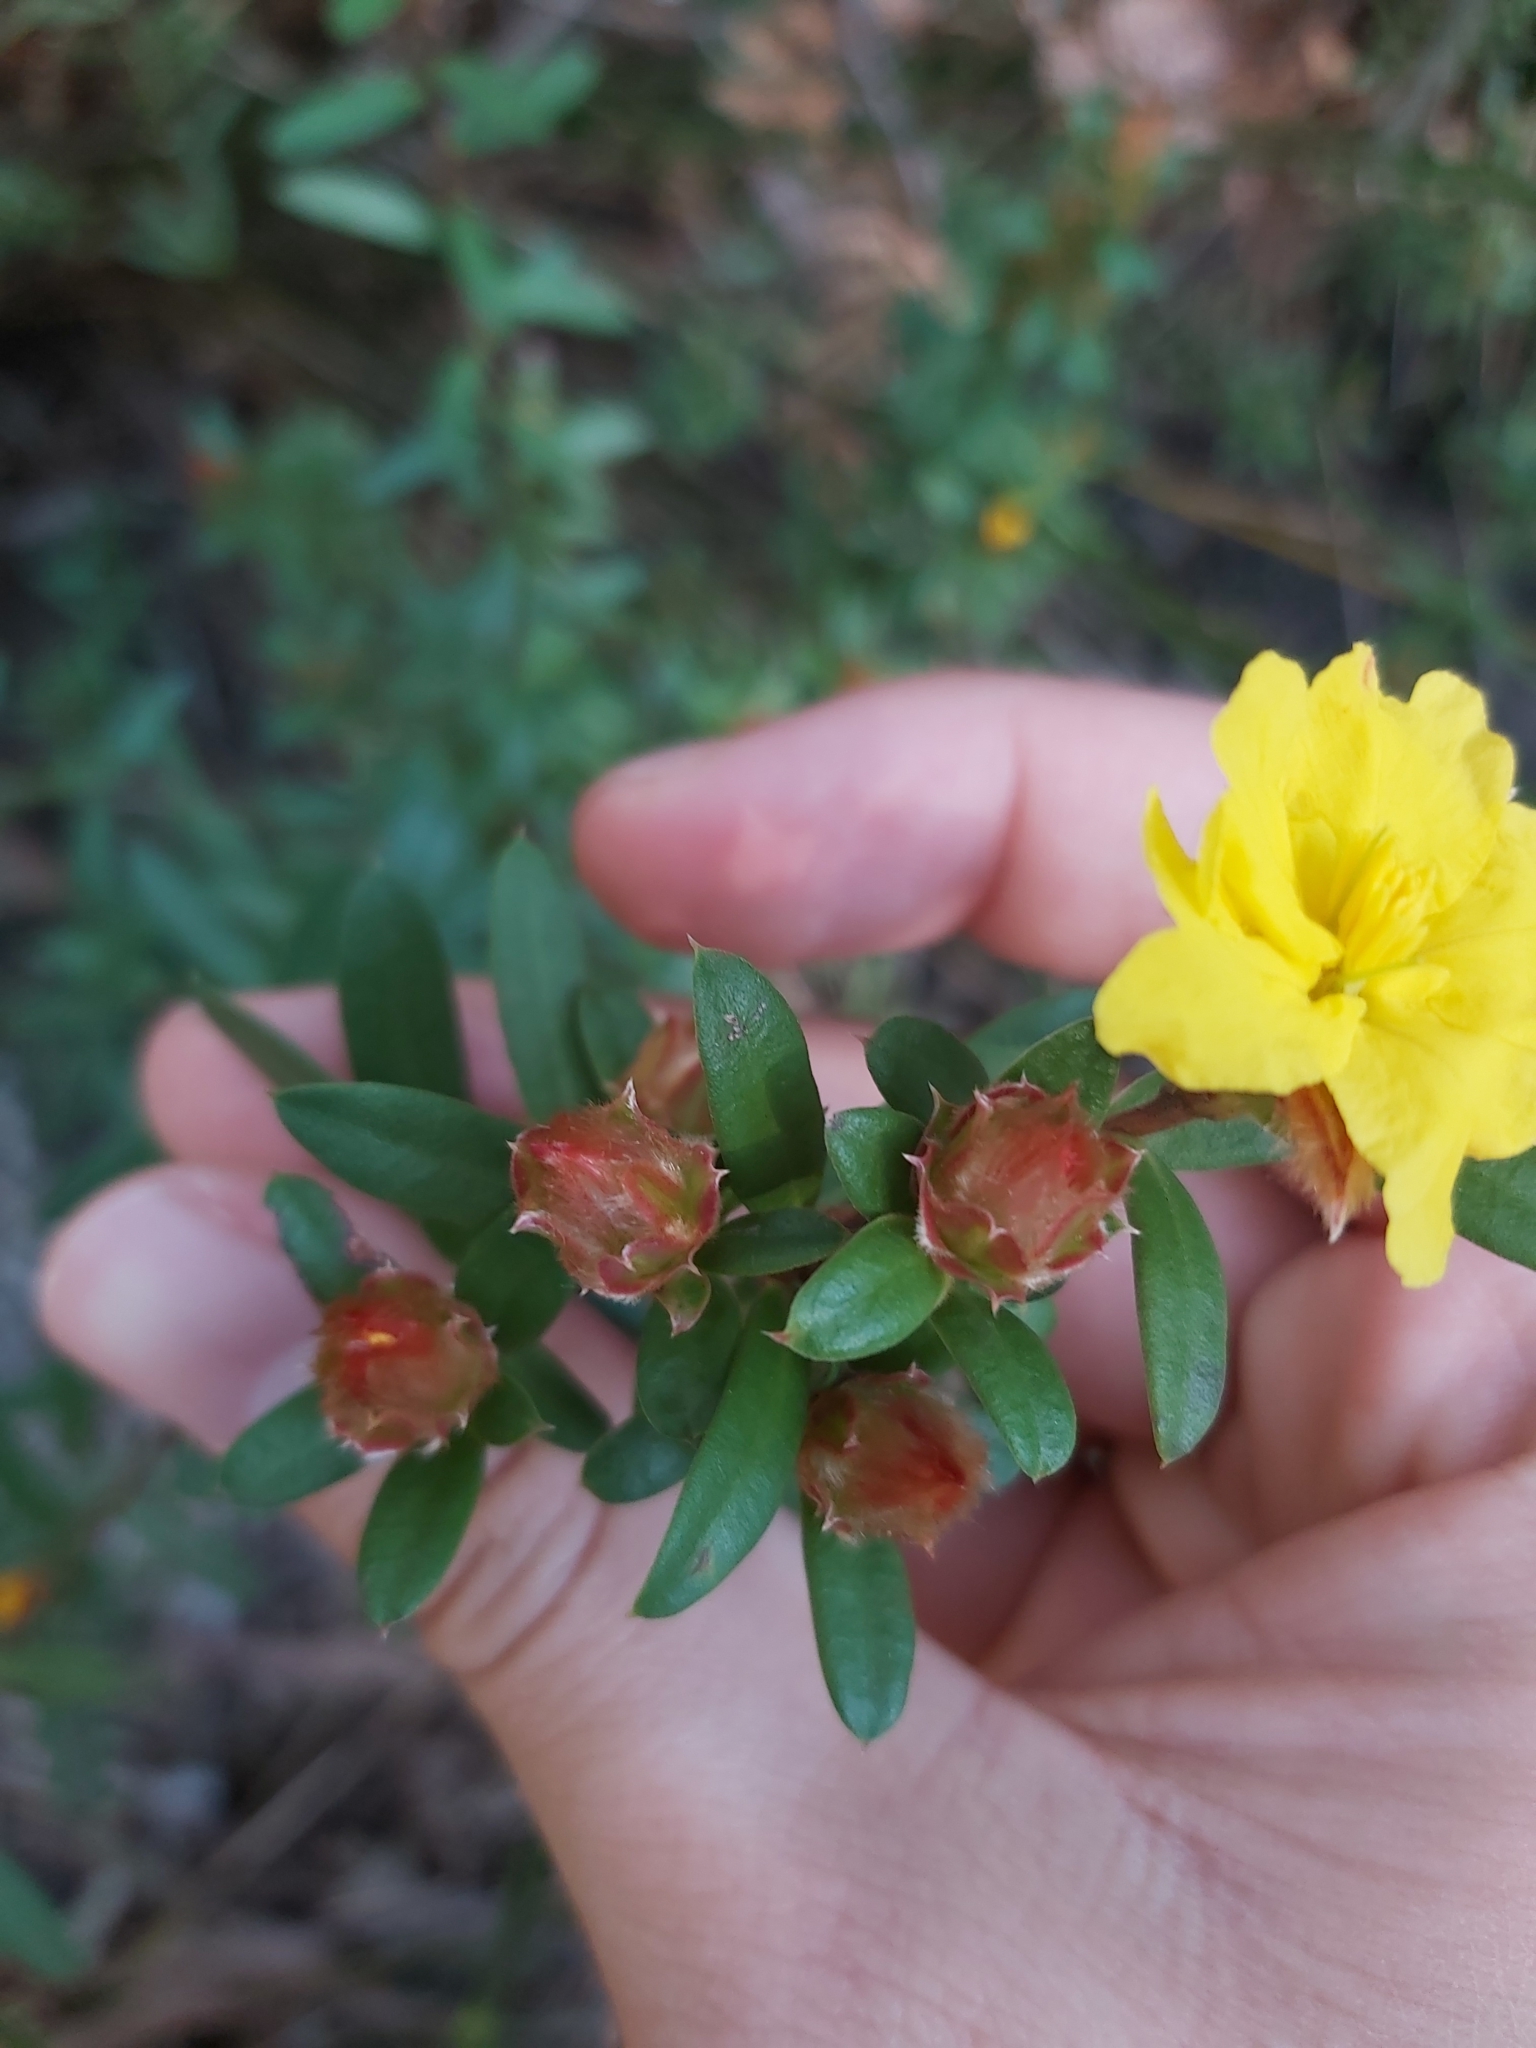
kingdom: Plantae
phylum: Tracheophyta
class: Magnoliopsida
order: Dilleniales
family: Dilleniaceae
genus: Hibbertia
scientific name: Hibbertia bracteata
